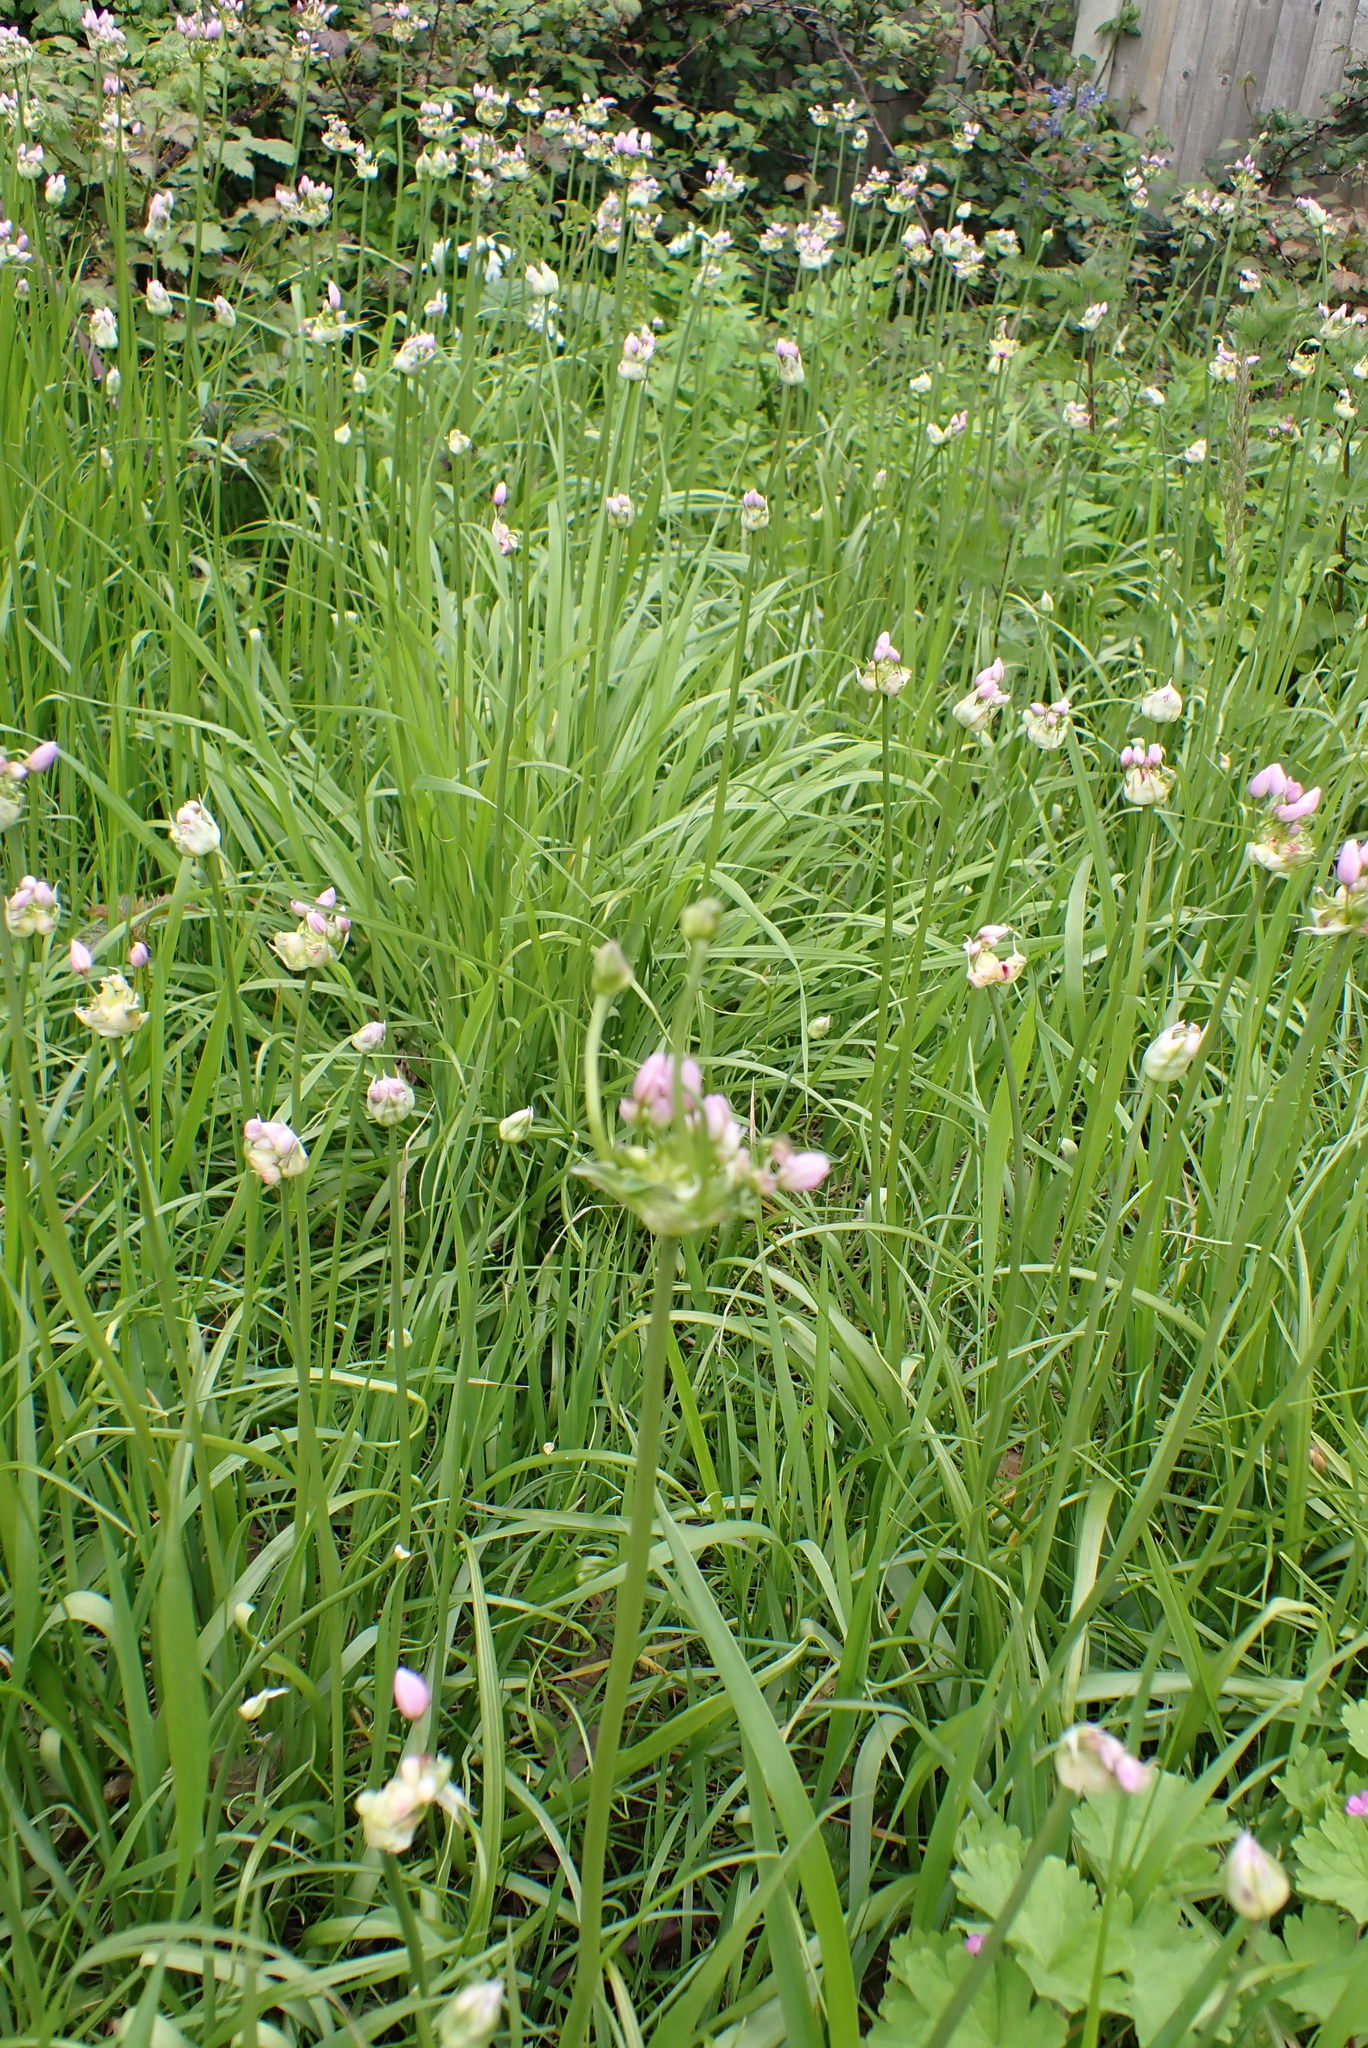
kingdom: Plantae
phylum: Tracheophyta
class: Liliopsida
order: Asparagales
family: Amaryllidaceae
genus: Allium
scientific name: Allium roseum
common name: Rosy garlic
